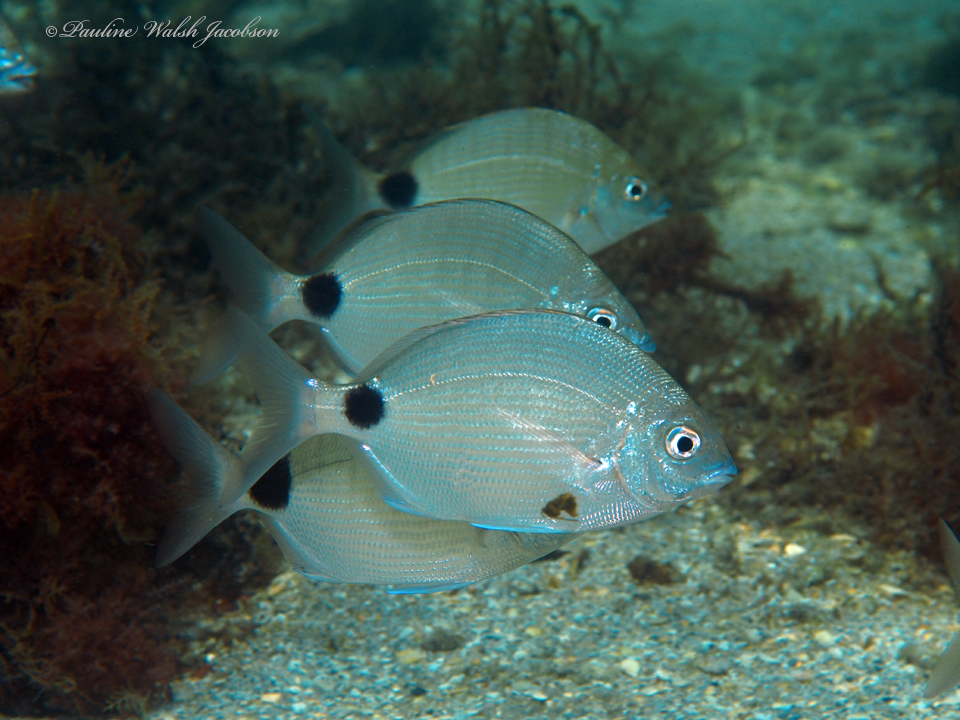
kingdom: Animalia
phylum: Chordata
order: Perciformes
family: Sparidae
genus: Diplodus
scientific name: Diplodus caudimacula
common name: Silver porgy
